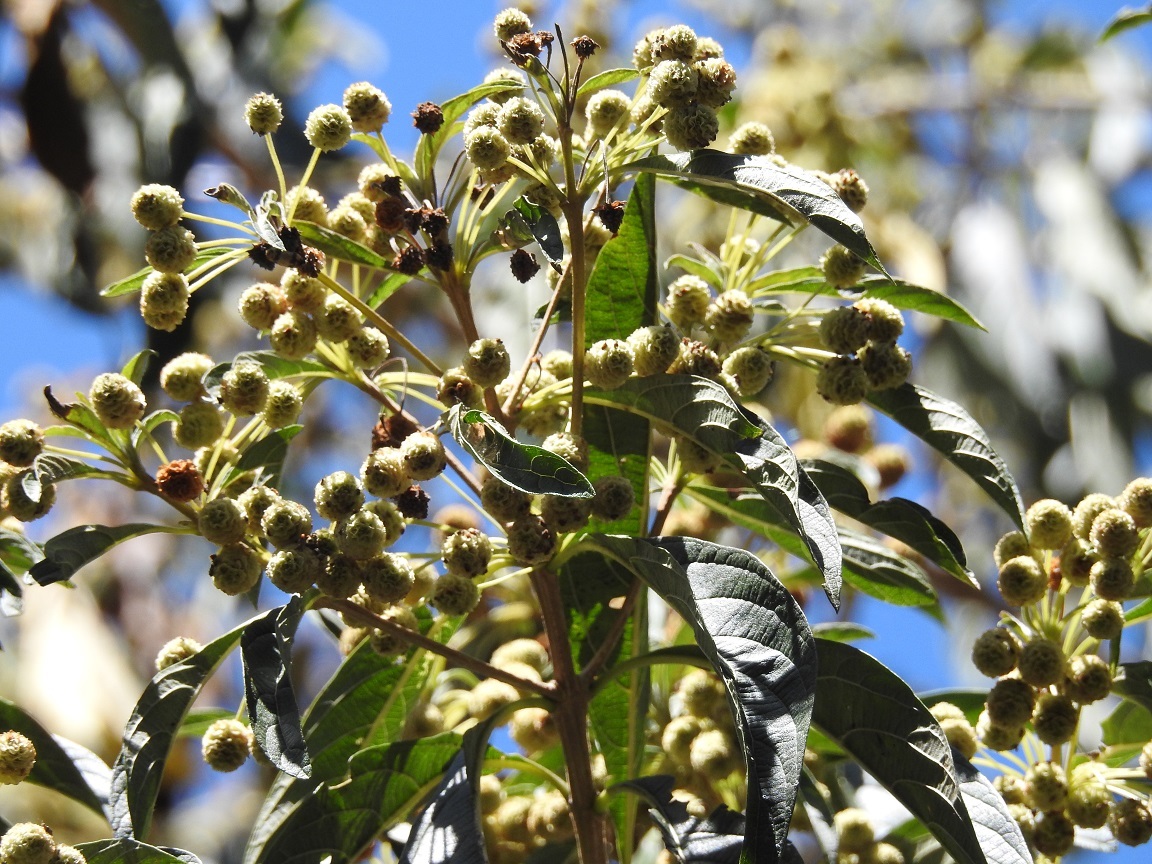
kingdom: Plantae
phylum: Tracheophyta
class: Magnoliopsida
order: Lamiales
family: Verbenaceae
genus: Lippia
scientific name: Lippia myriocephala
